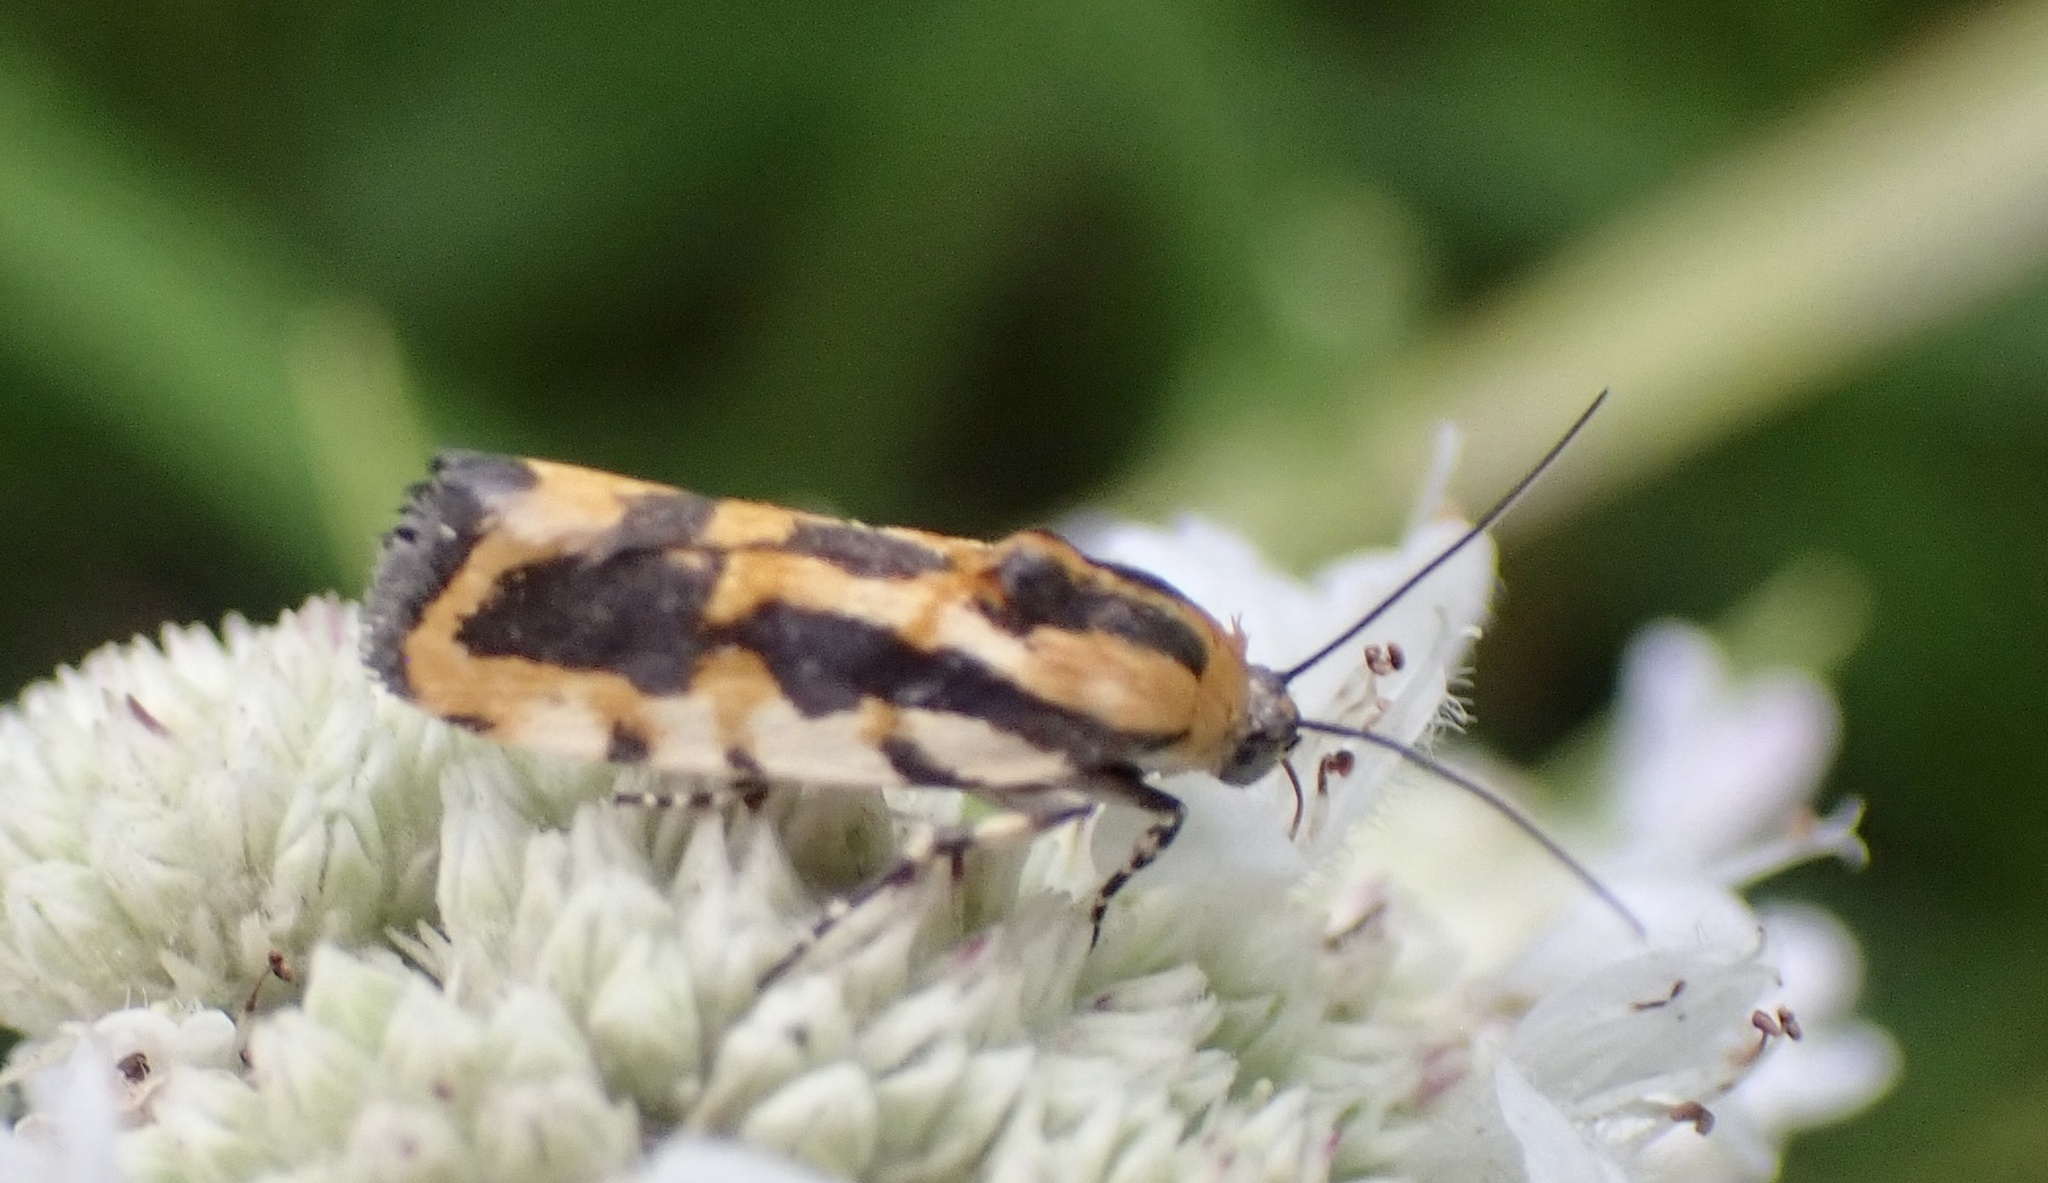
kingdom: Animalia
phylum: Arthropoda
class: Insecta
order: Lepidoptera
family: Noctuidae
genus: Acontia
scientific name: Acontia leo
